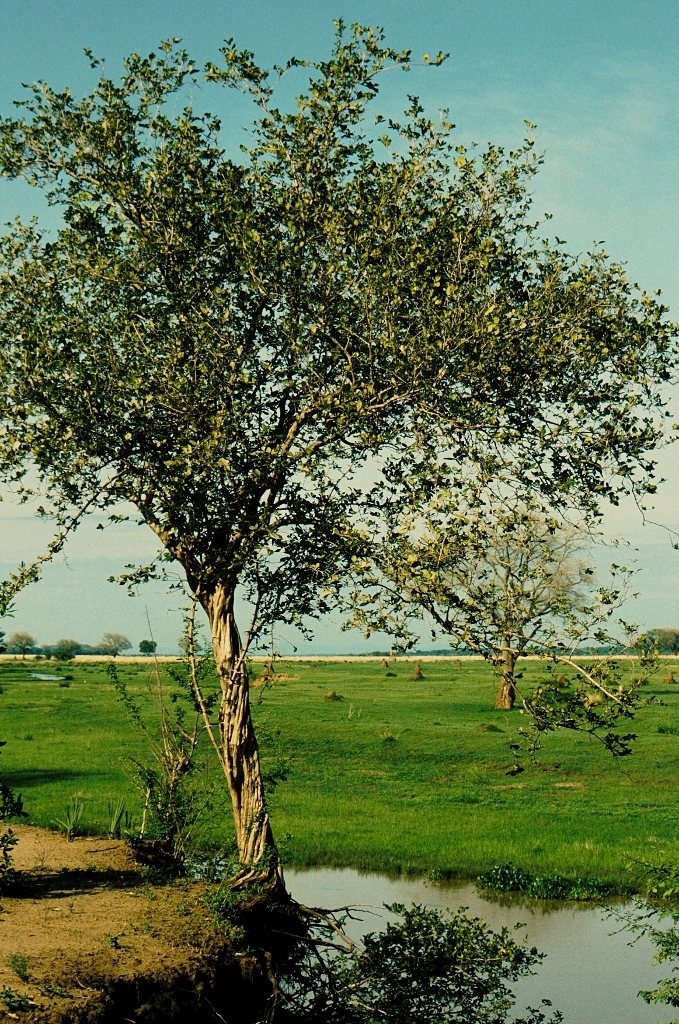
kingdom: Plantae
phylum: Tracheophyta
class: Magnoliopsida
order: Ericales
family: Ebenaceae
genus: Diospyros
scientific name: Diospyros senensis
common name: Spiny jackal berry
